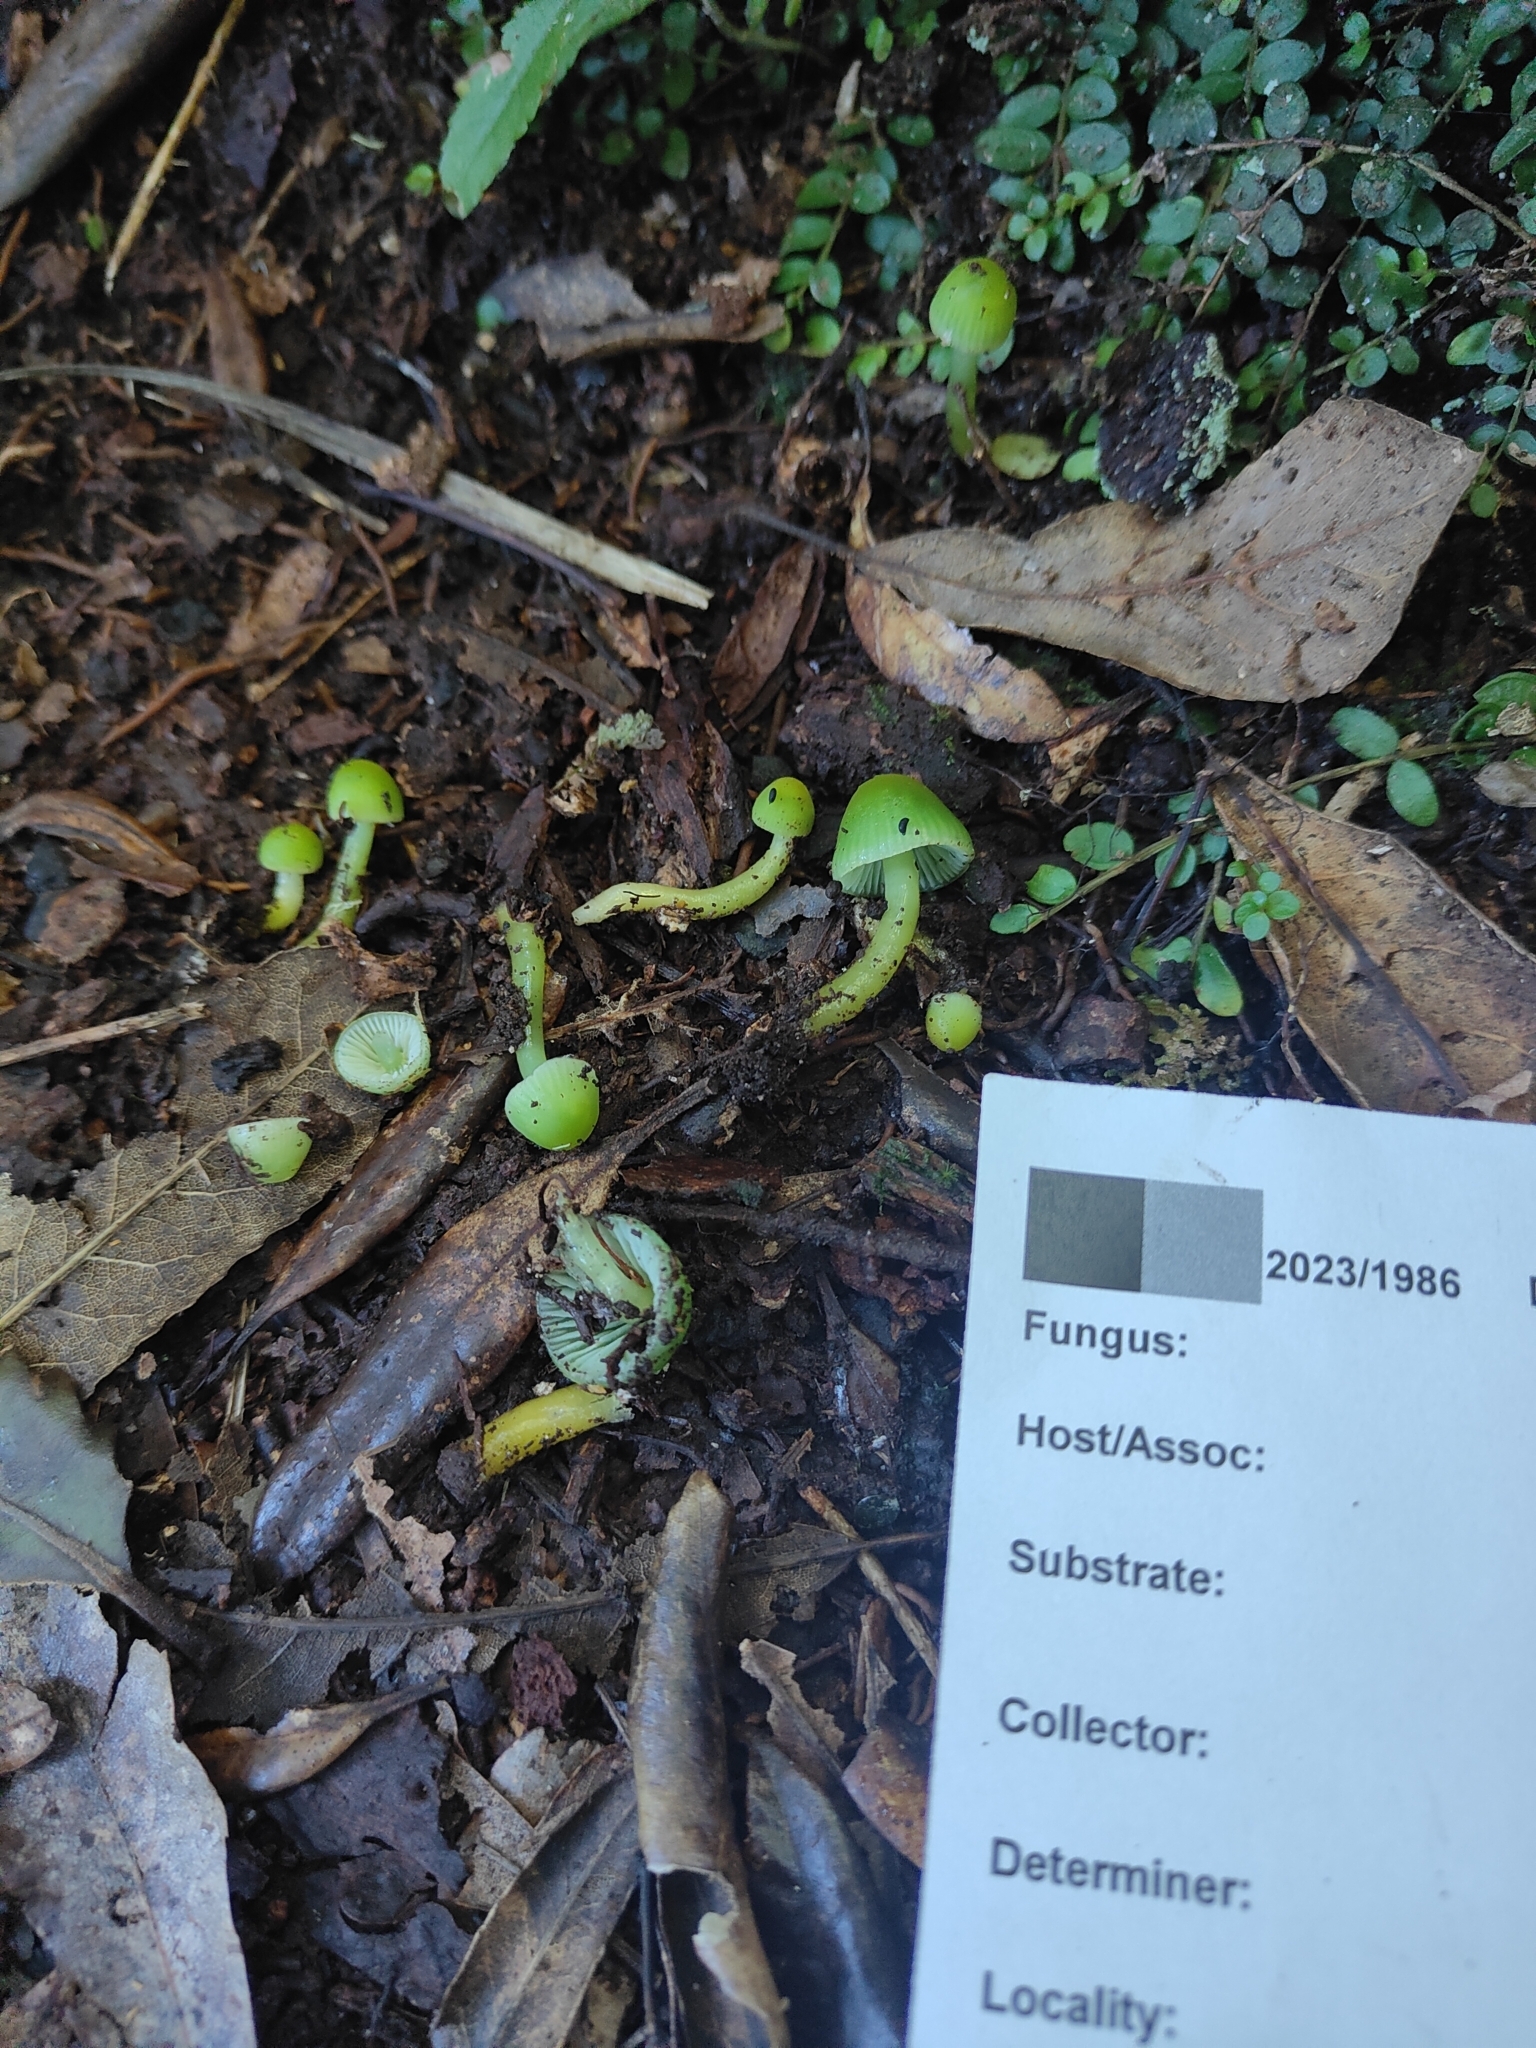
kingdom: Fungi
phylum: Basidiomycota
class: Agaricomycetes
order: Agaricales
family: Hygrophoraceae
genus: Gliophorus
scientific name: Gliophorus viridis
